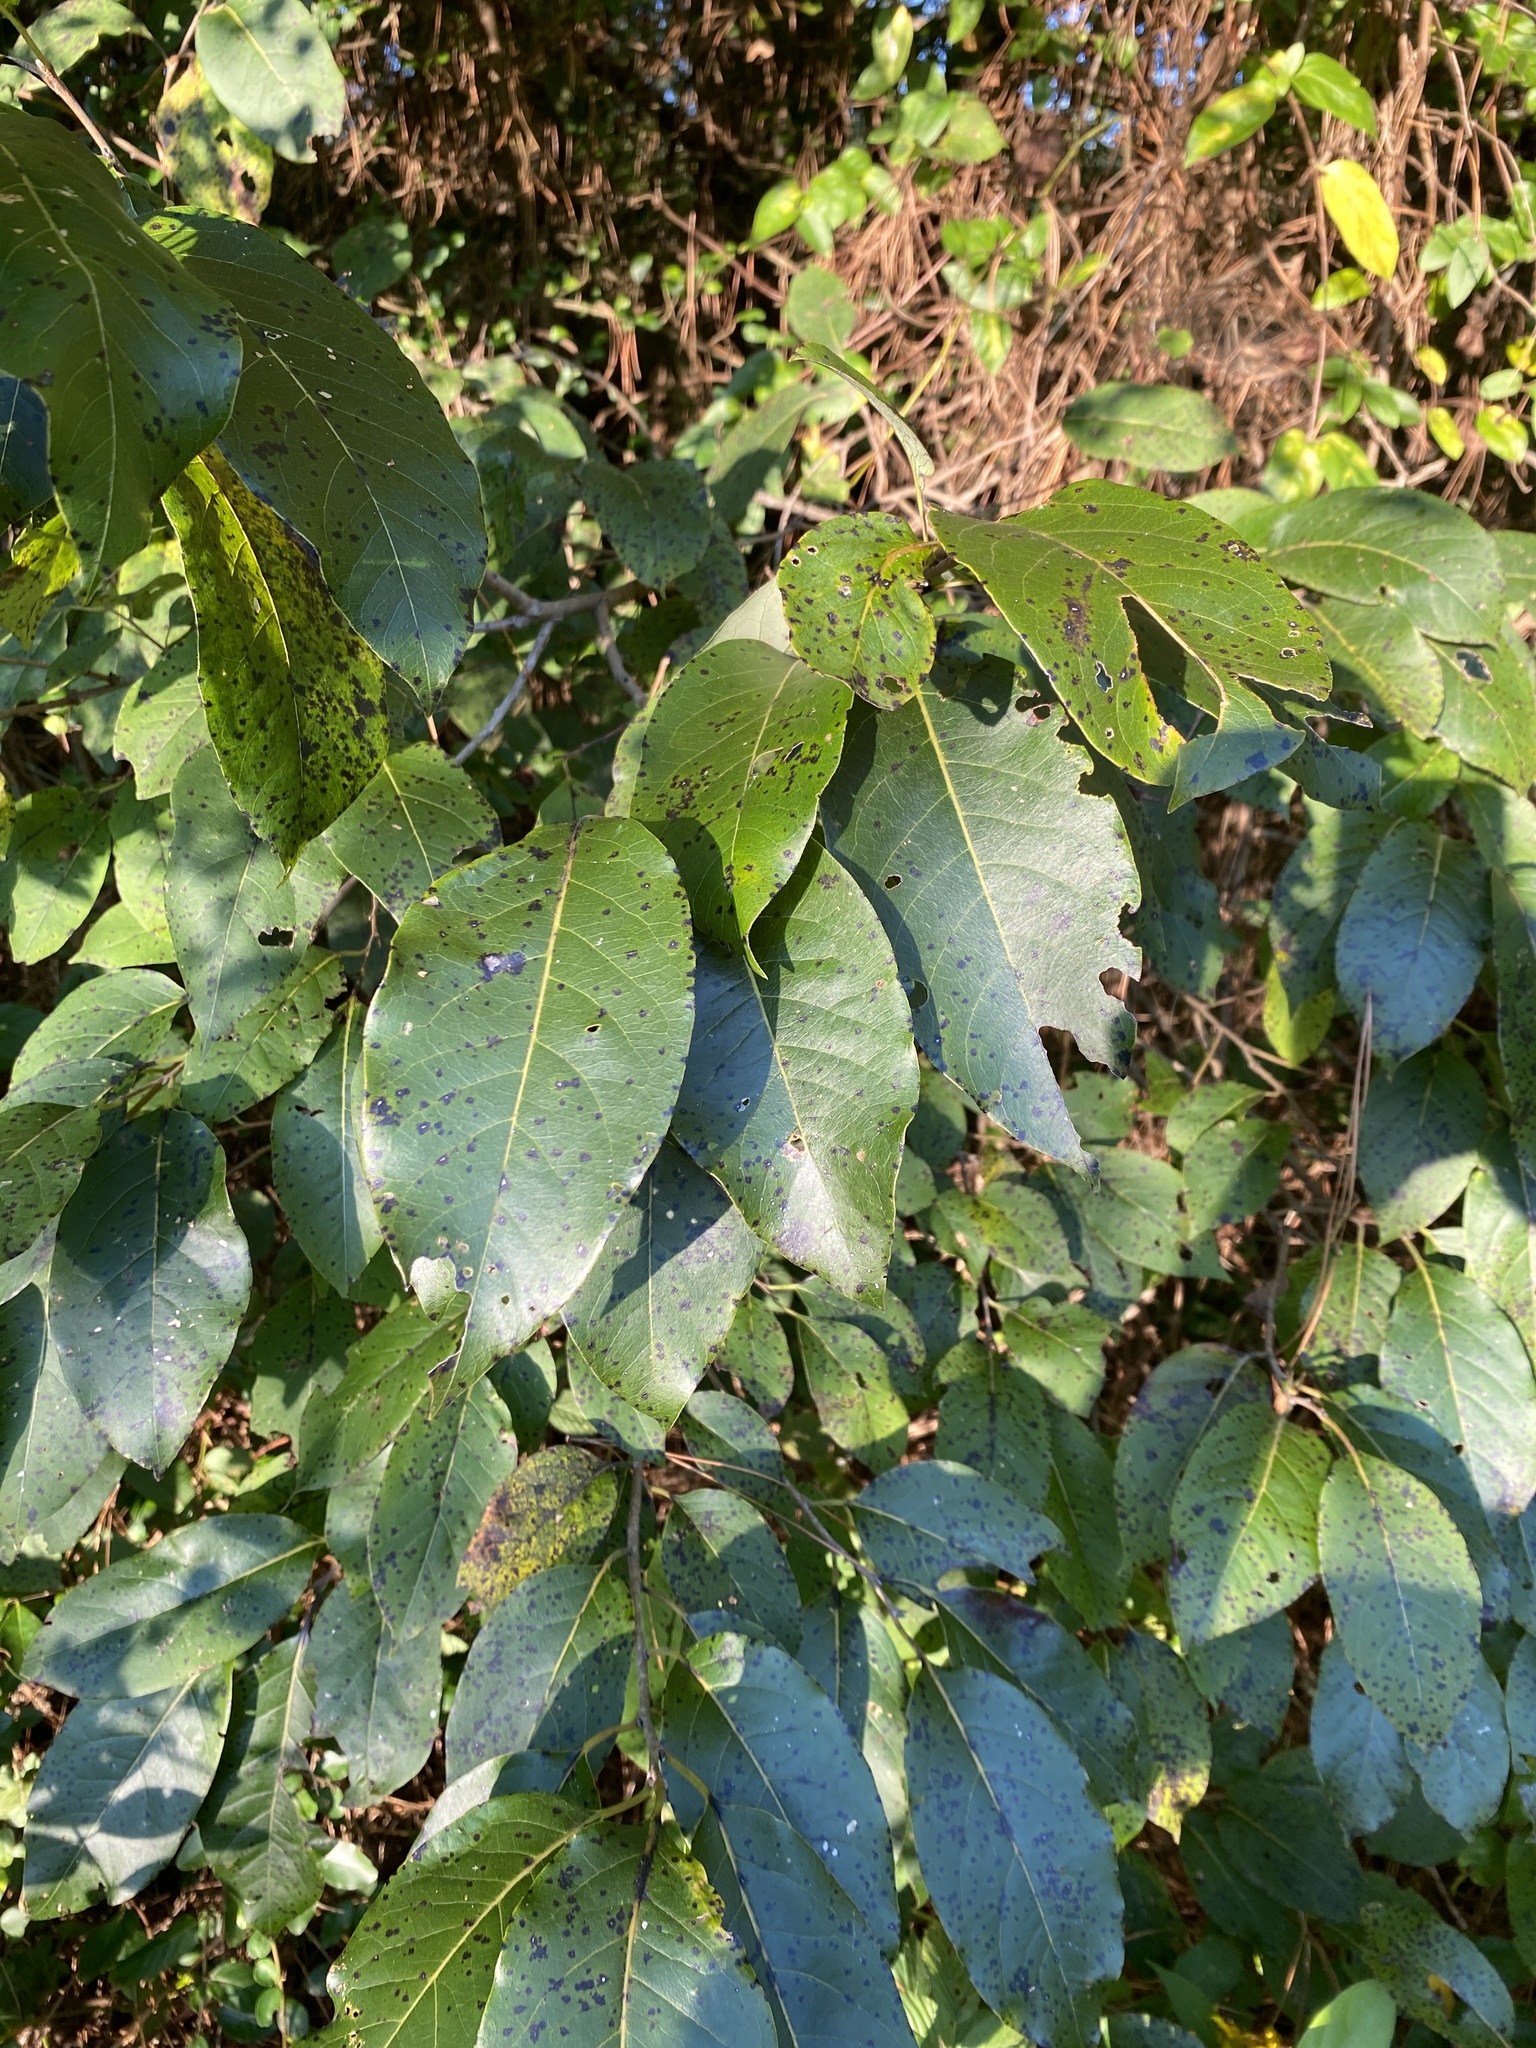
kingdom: Plantae
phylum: Tracheophyta
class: Magnoliopsida
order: Ericales
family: Ebenaceae
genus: Diospyros
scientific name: Diospyros virginiana
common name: Persimmon
